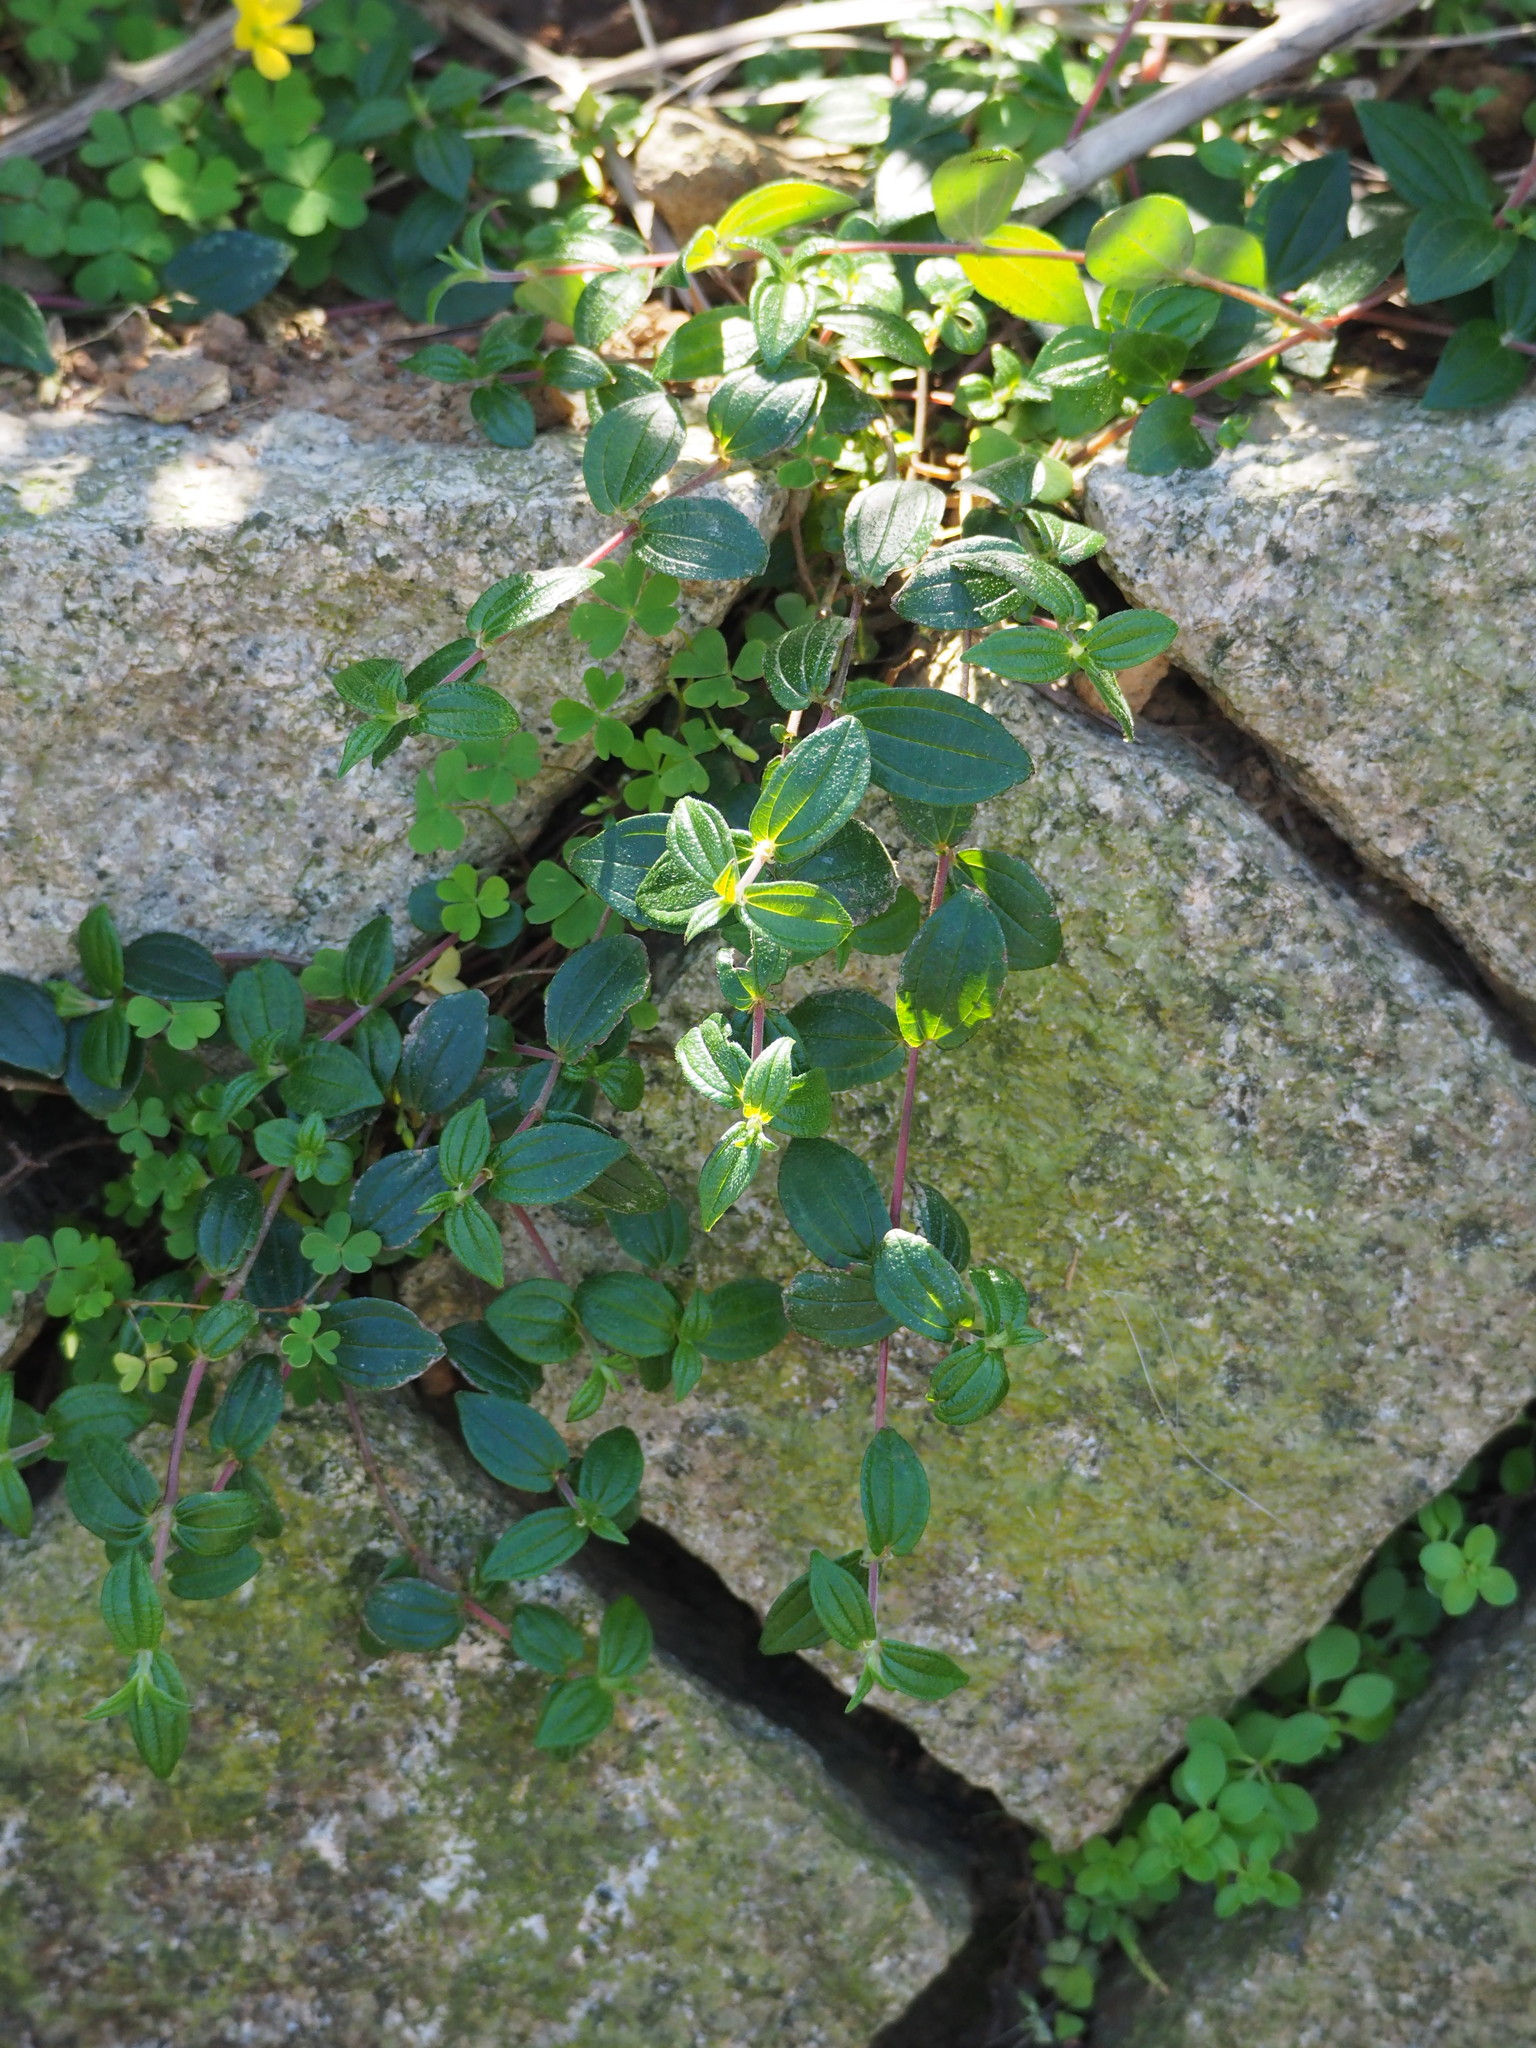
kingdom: Plantae
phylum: Tracheophyta
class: Magnoliopsida
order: Rosales
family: Urticaceae
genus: Gonostegia
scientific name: Gonostegia triandra
